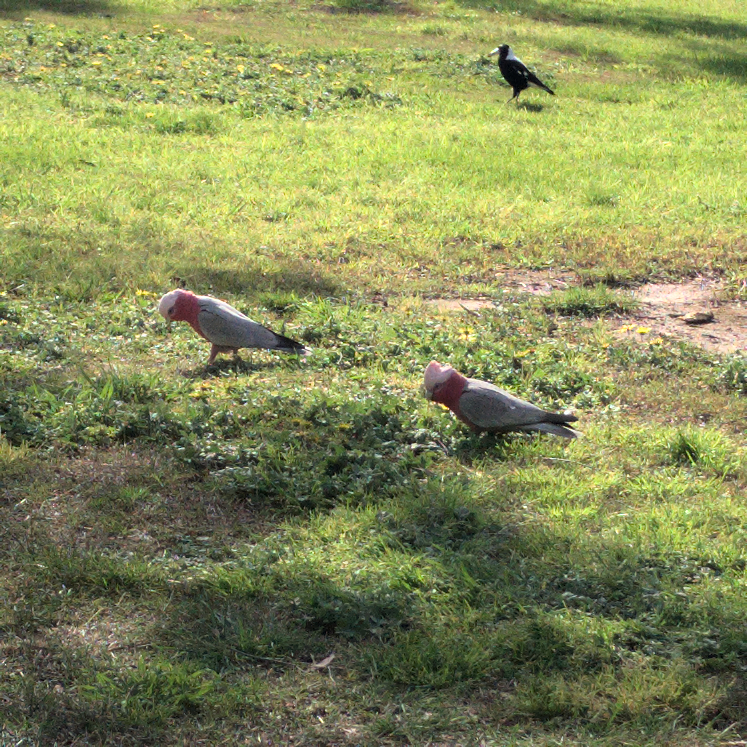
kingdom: Animalia
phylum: Chordata
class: Aves
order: Psittaciformes
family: Psittacidae
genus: Eolophus
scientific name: Eolophus roseicapilla
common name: Galah
